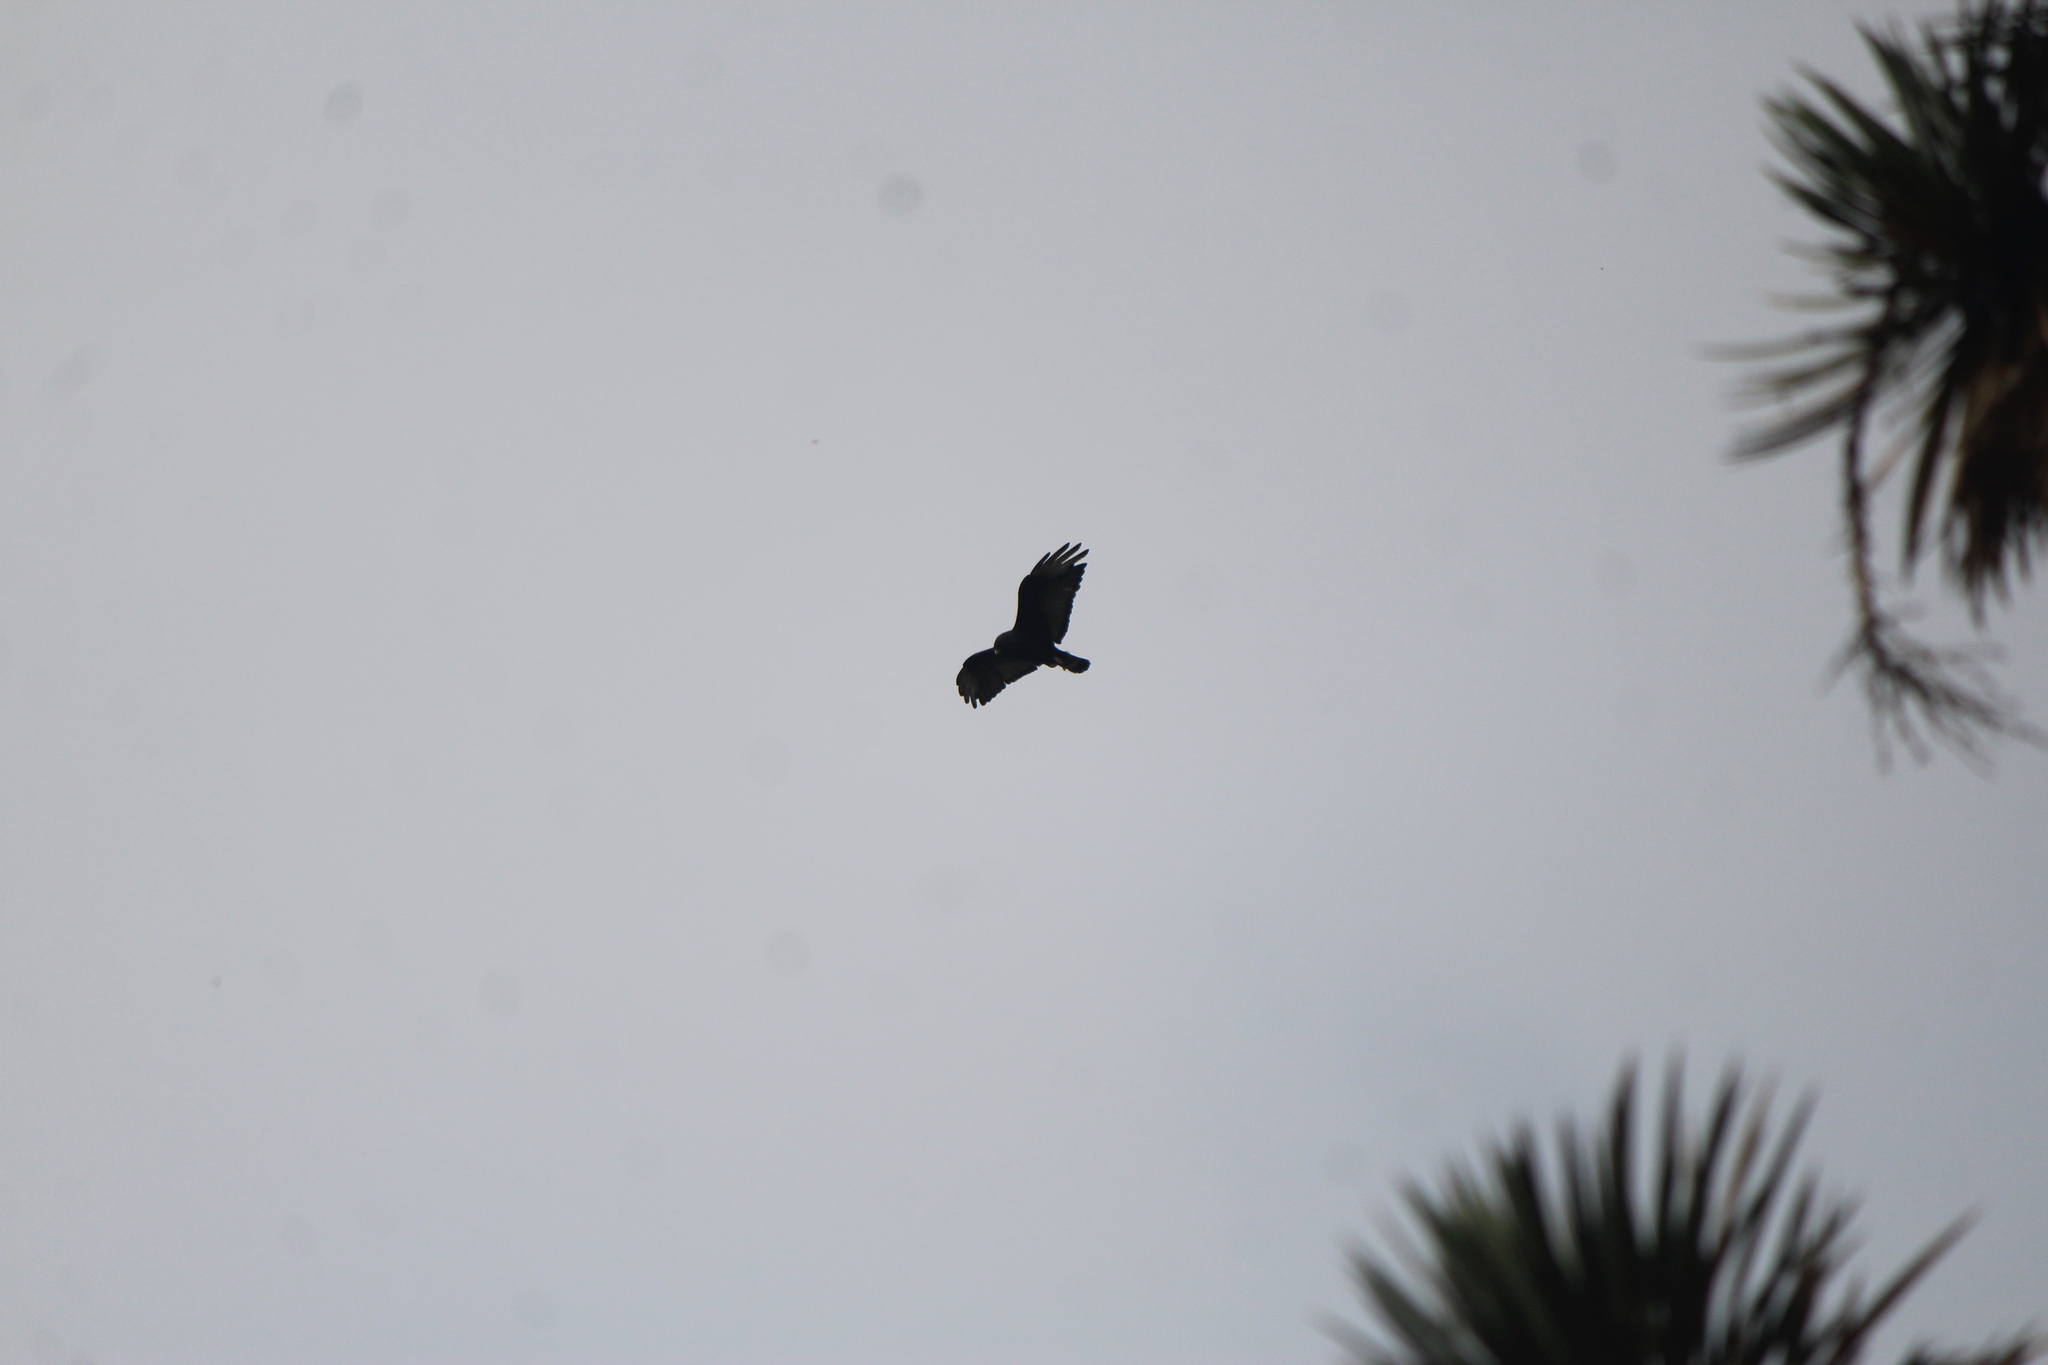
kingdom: Animalia
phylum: Chordata
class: Aves
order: Accipitriformes
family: Accipitridae
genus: Buteo
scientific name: Buteo albonotatus
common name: Zone-tailed hawk
